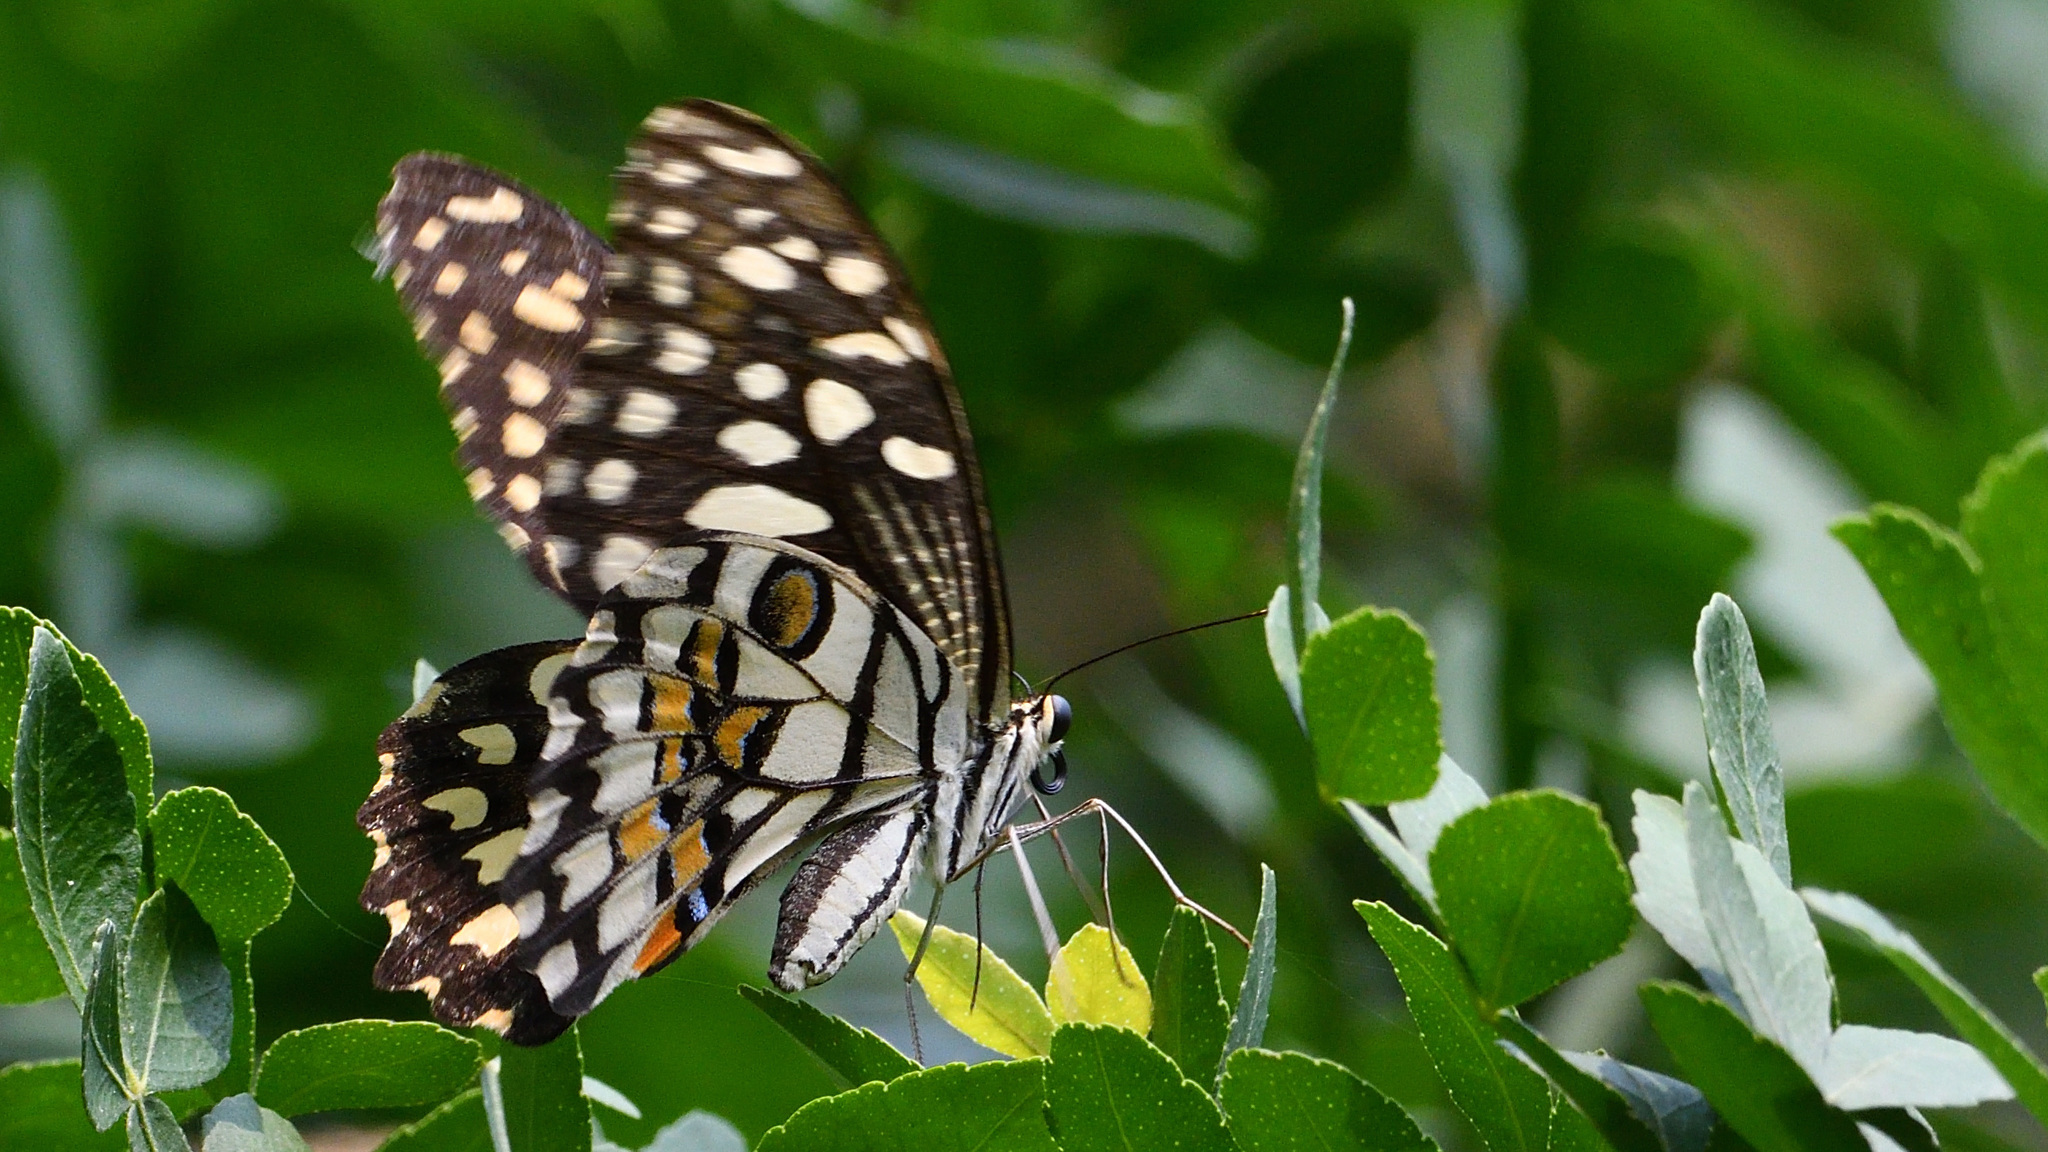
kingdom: Animalia
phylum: Arthropoda
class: Insecta
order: Lepidoptera
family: Papilionidae
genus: Papilio
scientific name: Papilio demoleus
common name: Lime butterfly
